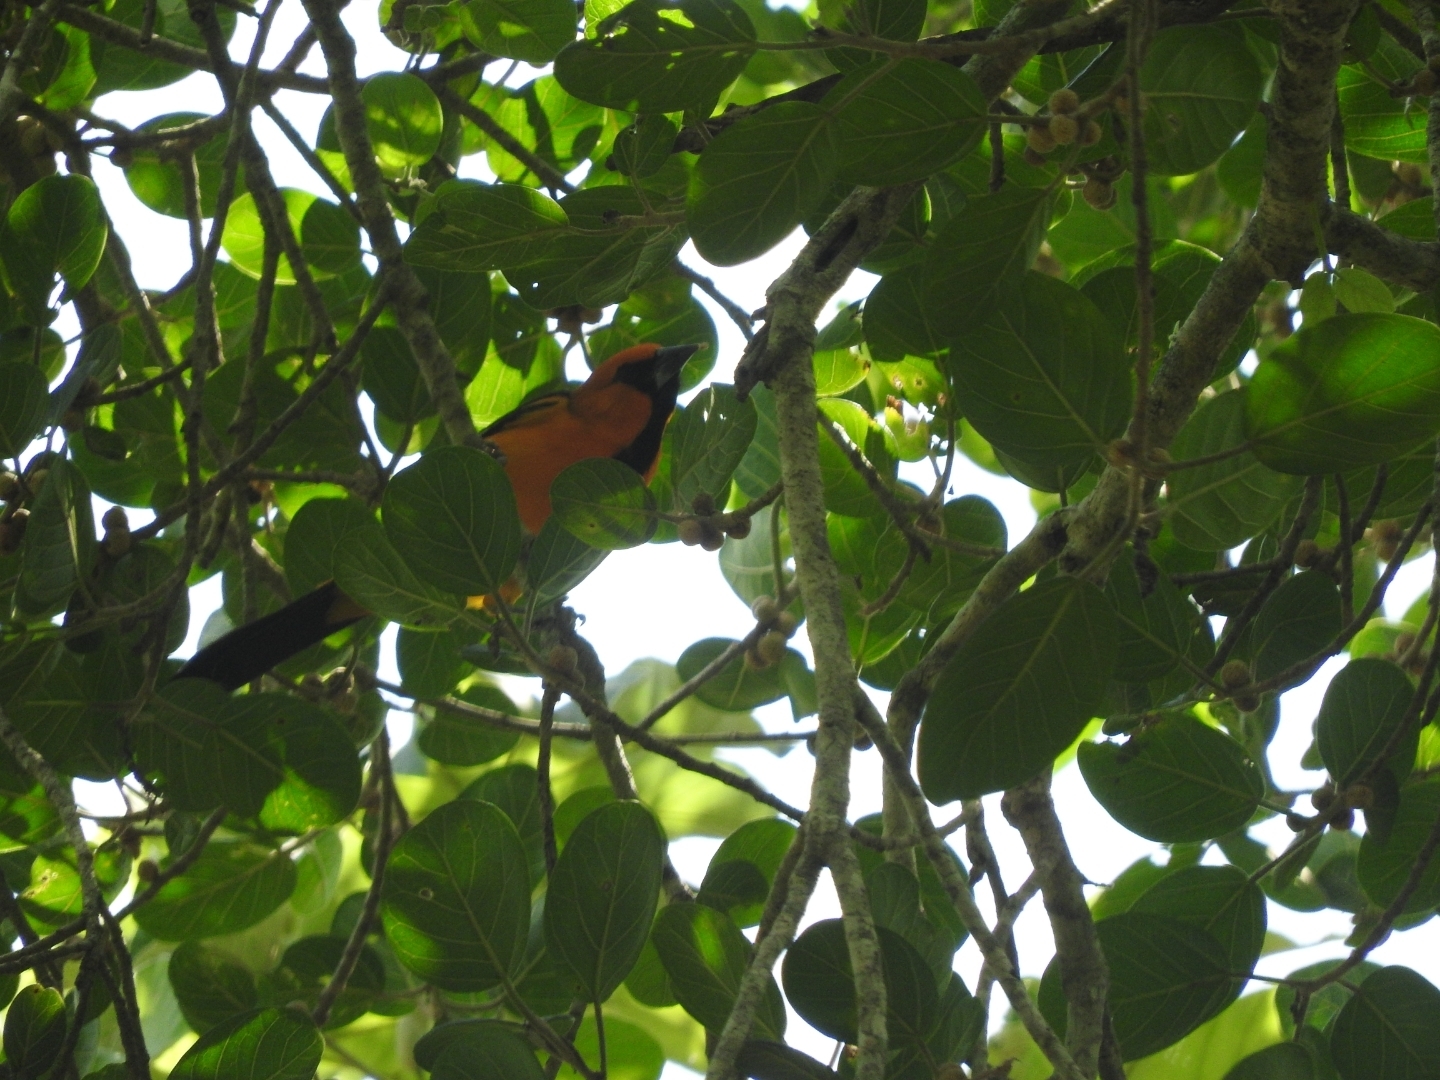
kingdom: Animalia
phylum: Chordata
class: Aves
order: Passeriformes
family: Icteridae
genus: Icterus
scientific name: Icterus gularis
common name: Altamira oriole
